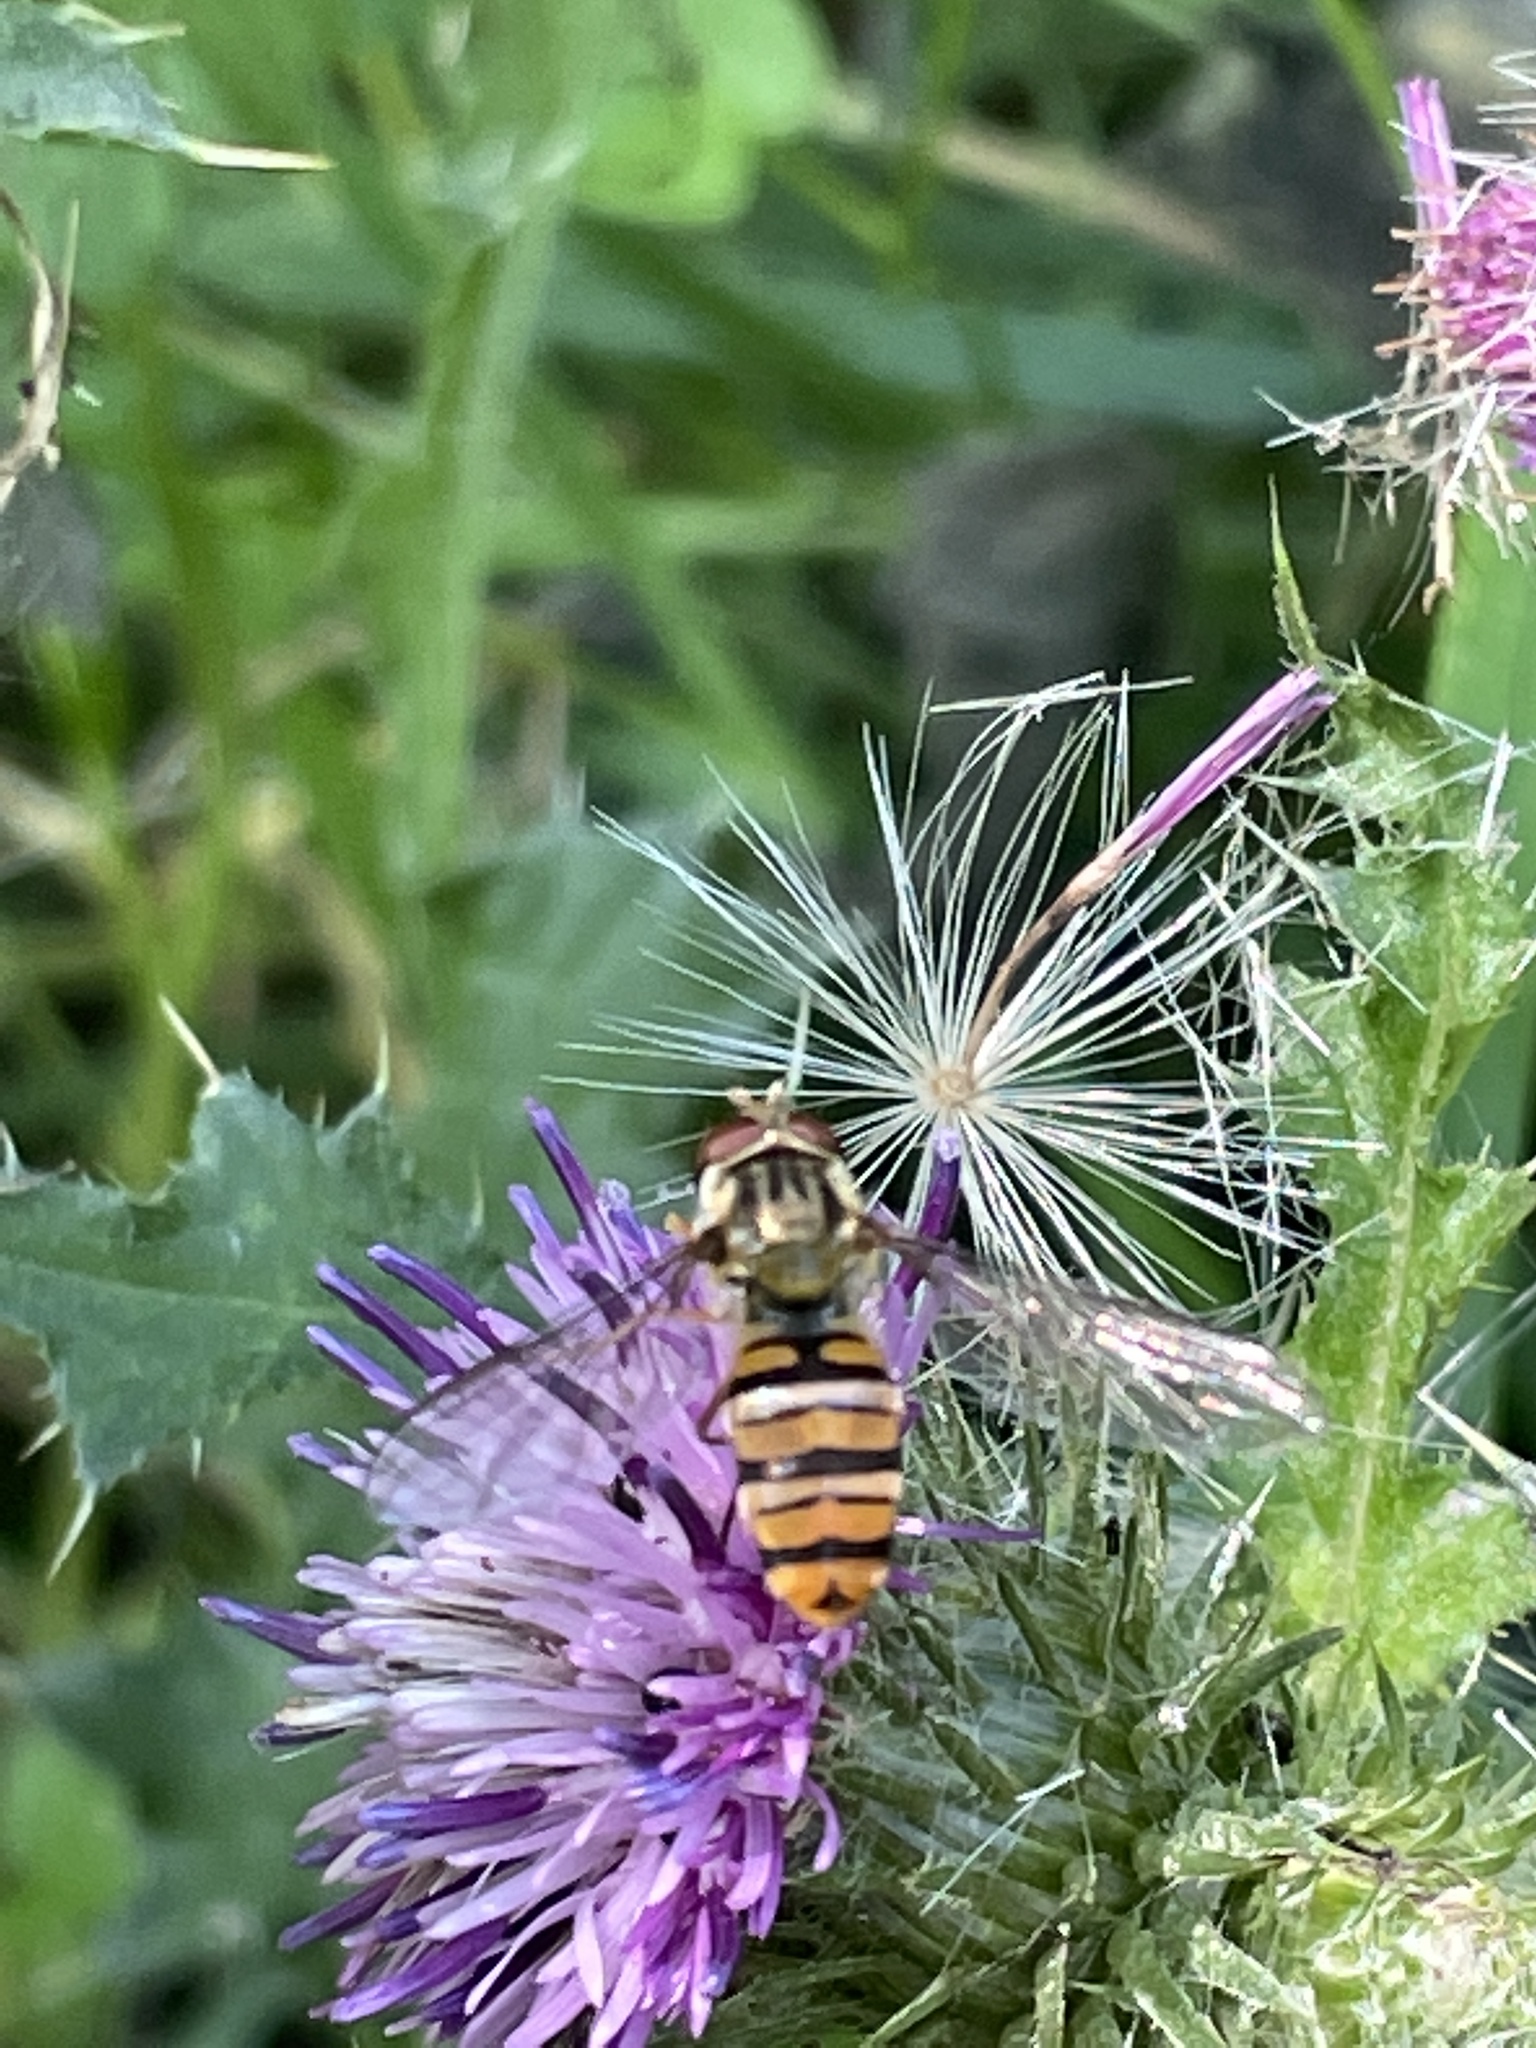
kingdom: Animalia
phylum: Arthropoda
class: Insecta
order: Diptera
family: Syrphidae
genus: Episyrphus
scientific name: Episyrphus balteatus
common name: Marmalade hoverfly
